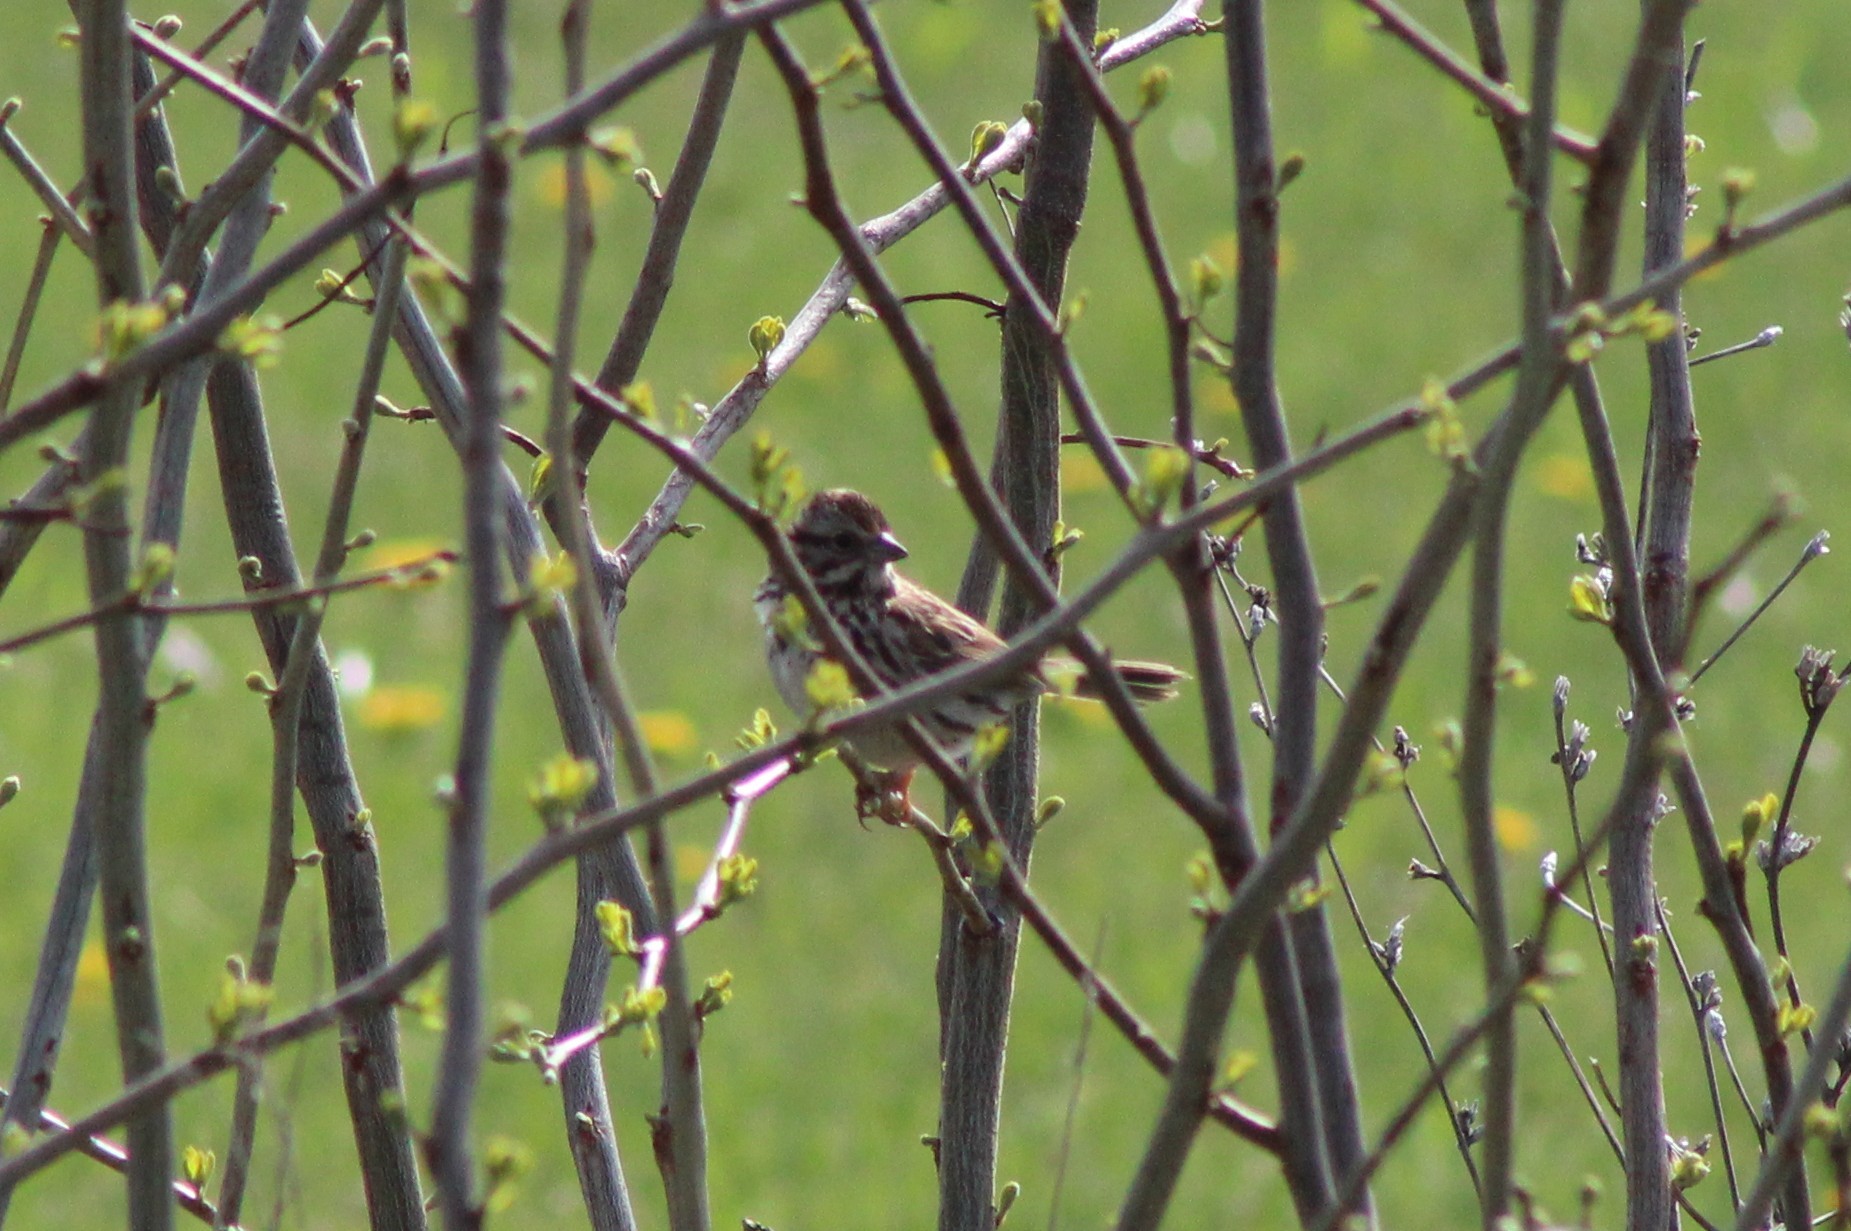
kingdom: Animalia
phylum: Chordata
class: Aves
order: Passeriformes
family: Passerellidae
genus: Melospiza
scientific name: Melospiza melodia
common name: Song sparrow
